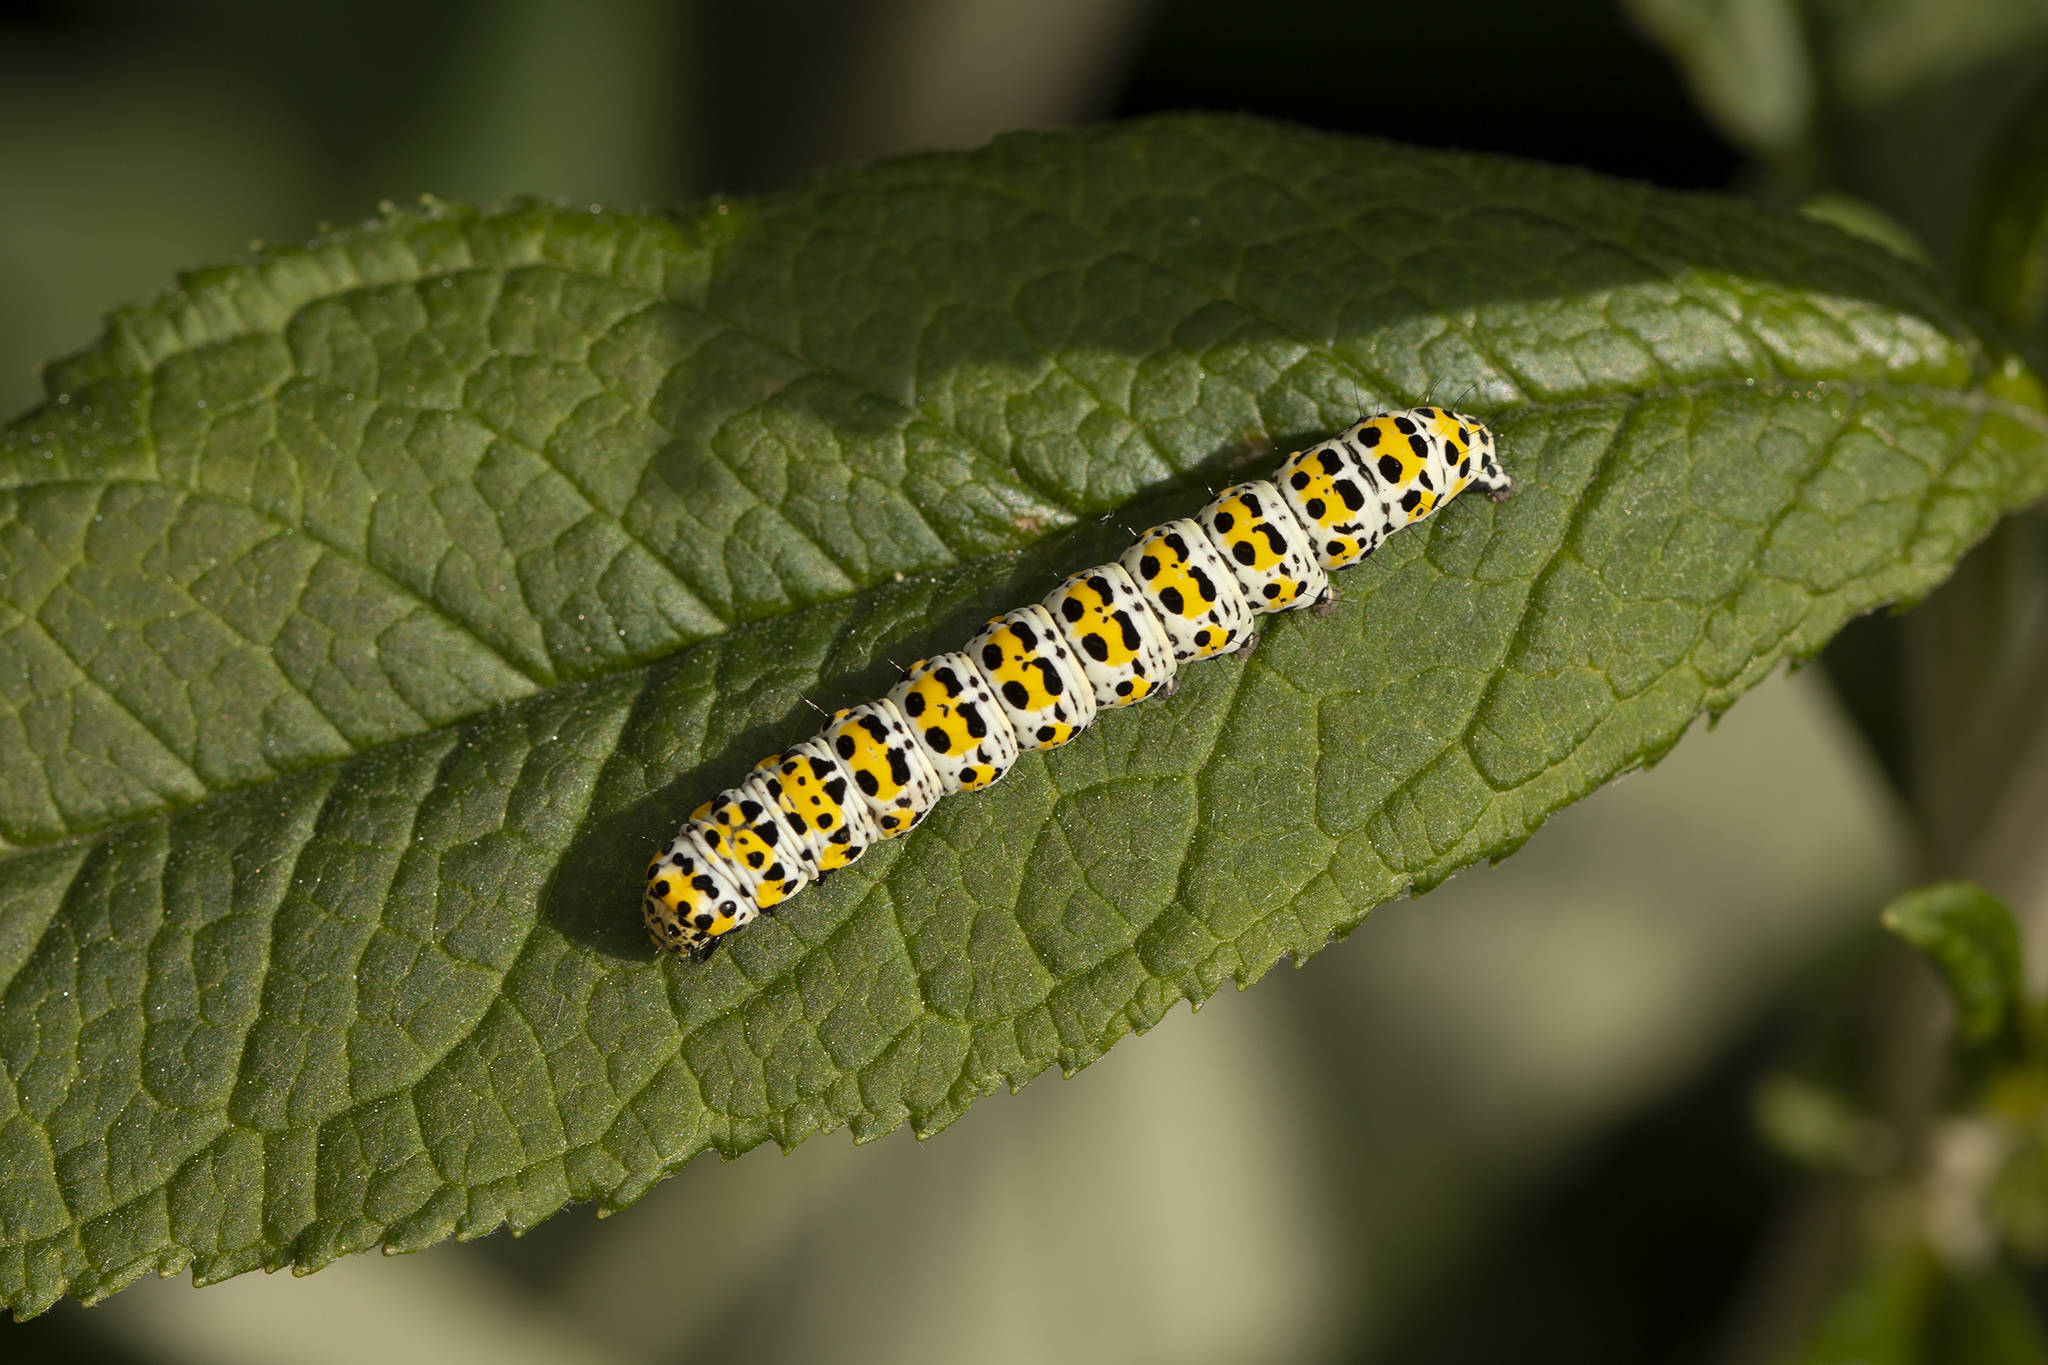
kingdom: Animalia
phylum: Arthropoda
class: Insecta
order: Lepidoptera
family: Noctuidae
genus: Cucullia
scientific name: Cucullia verbasci
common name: Mullein
